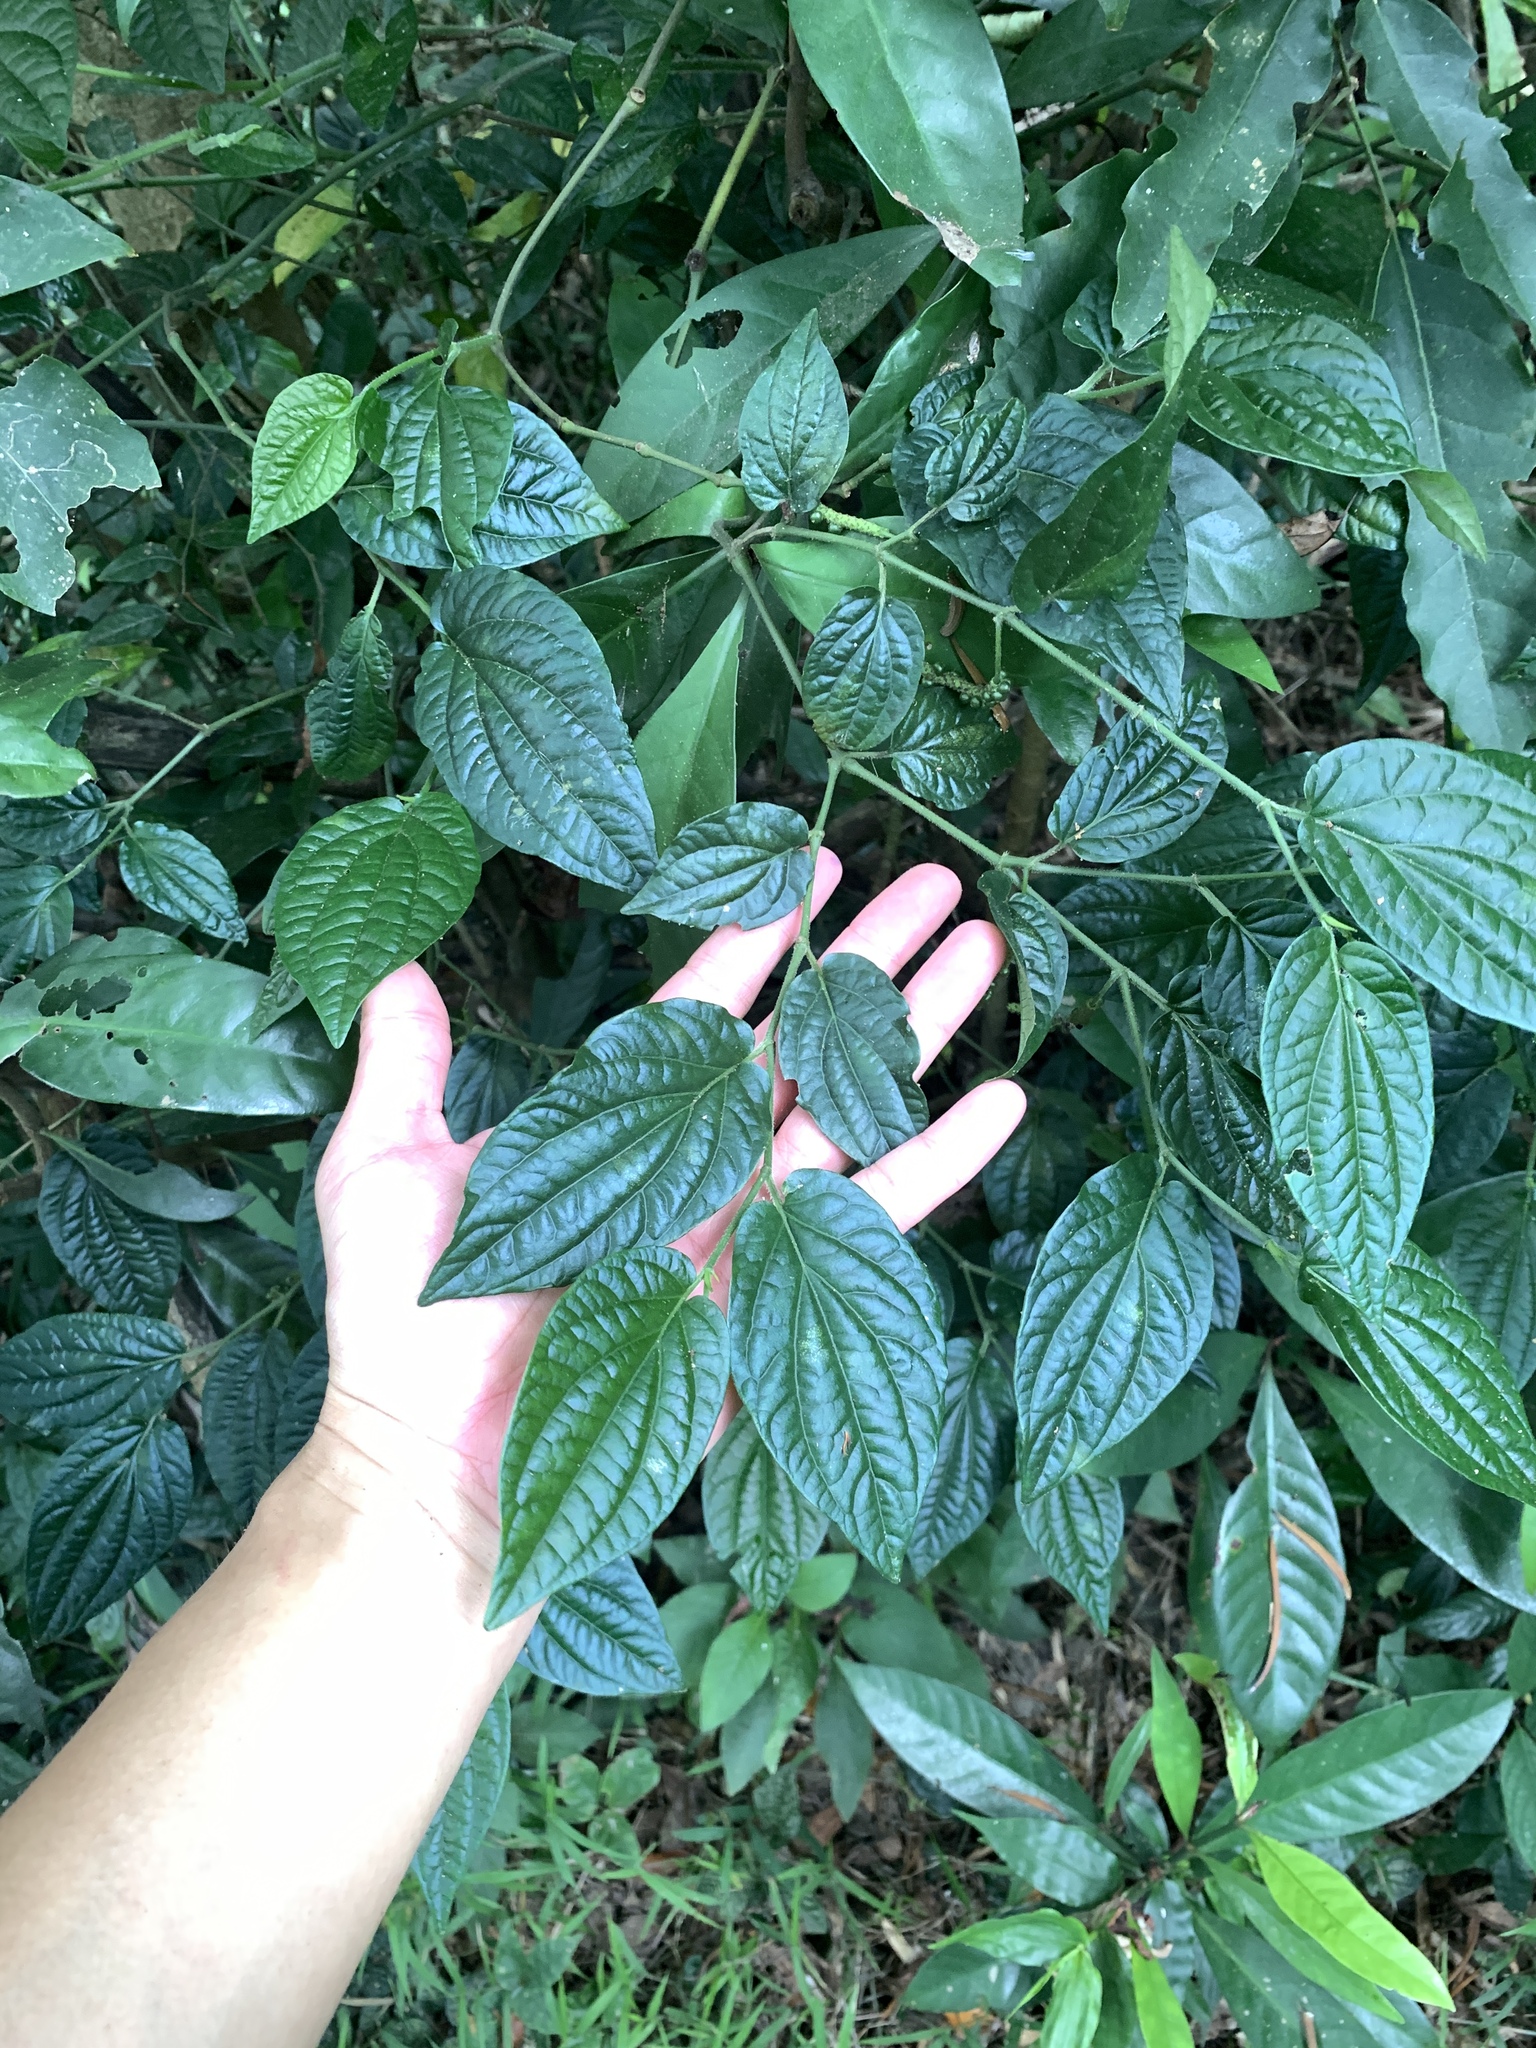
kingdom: Plantae
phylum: Tracheophyta
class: Magnoliopsida
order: Piperales
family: Piperaceae
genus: Piper
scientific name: Piper sintenense
